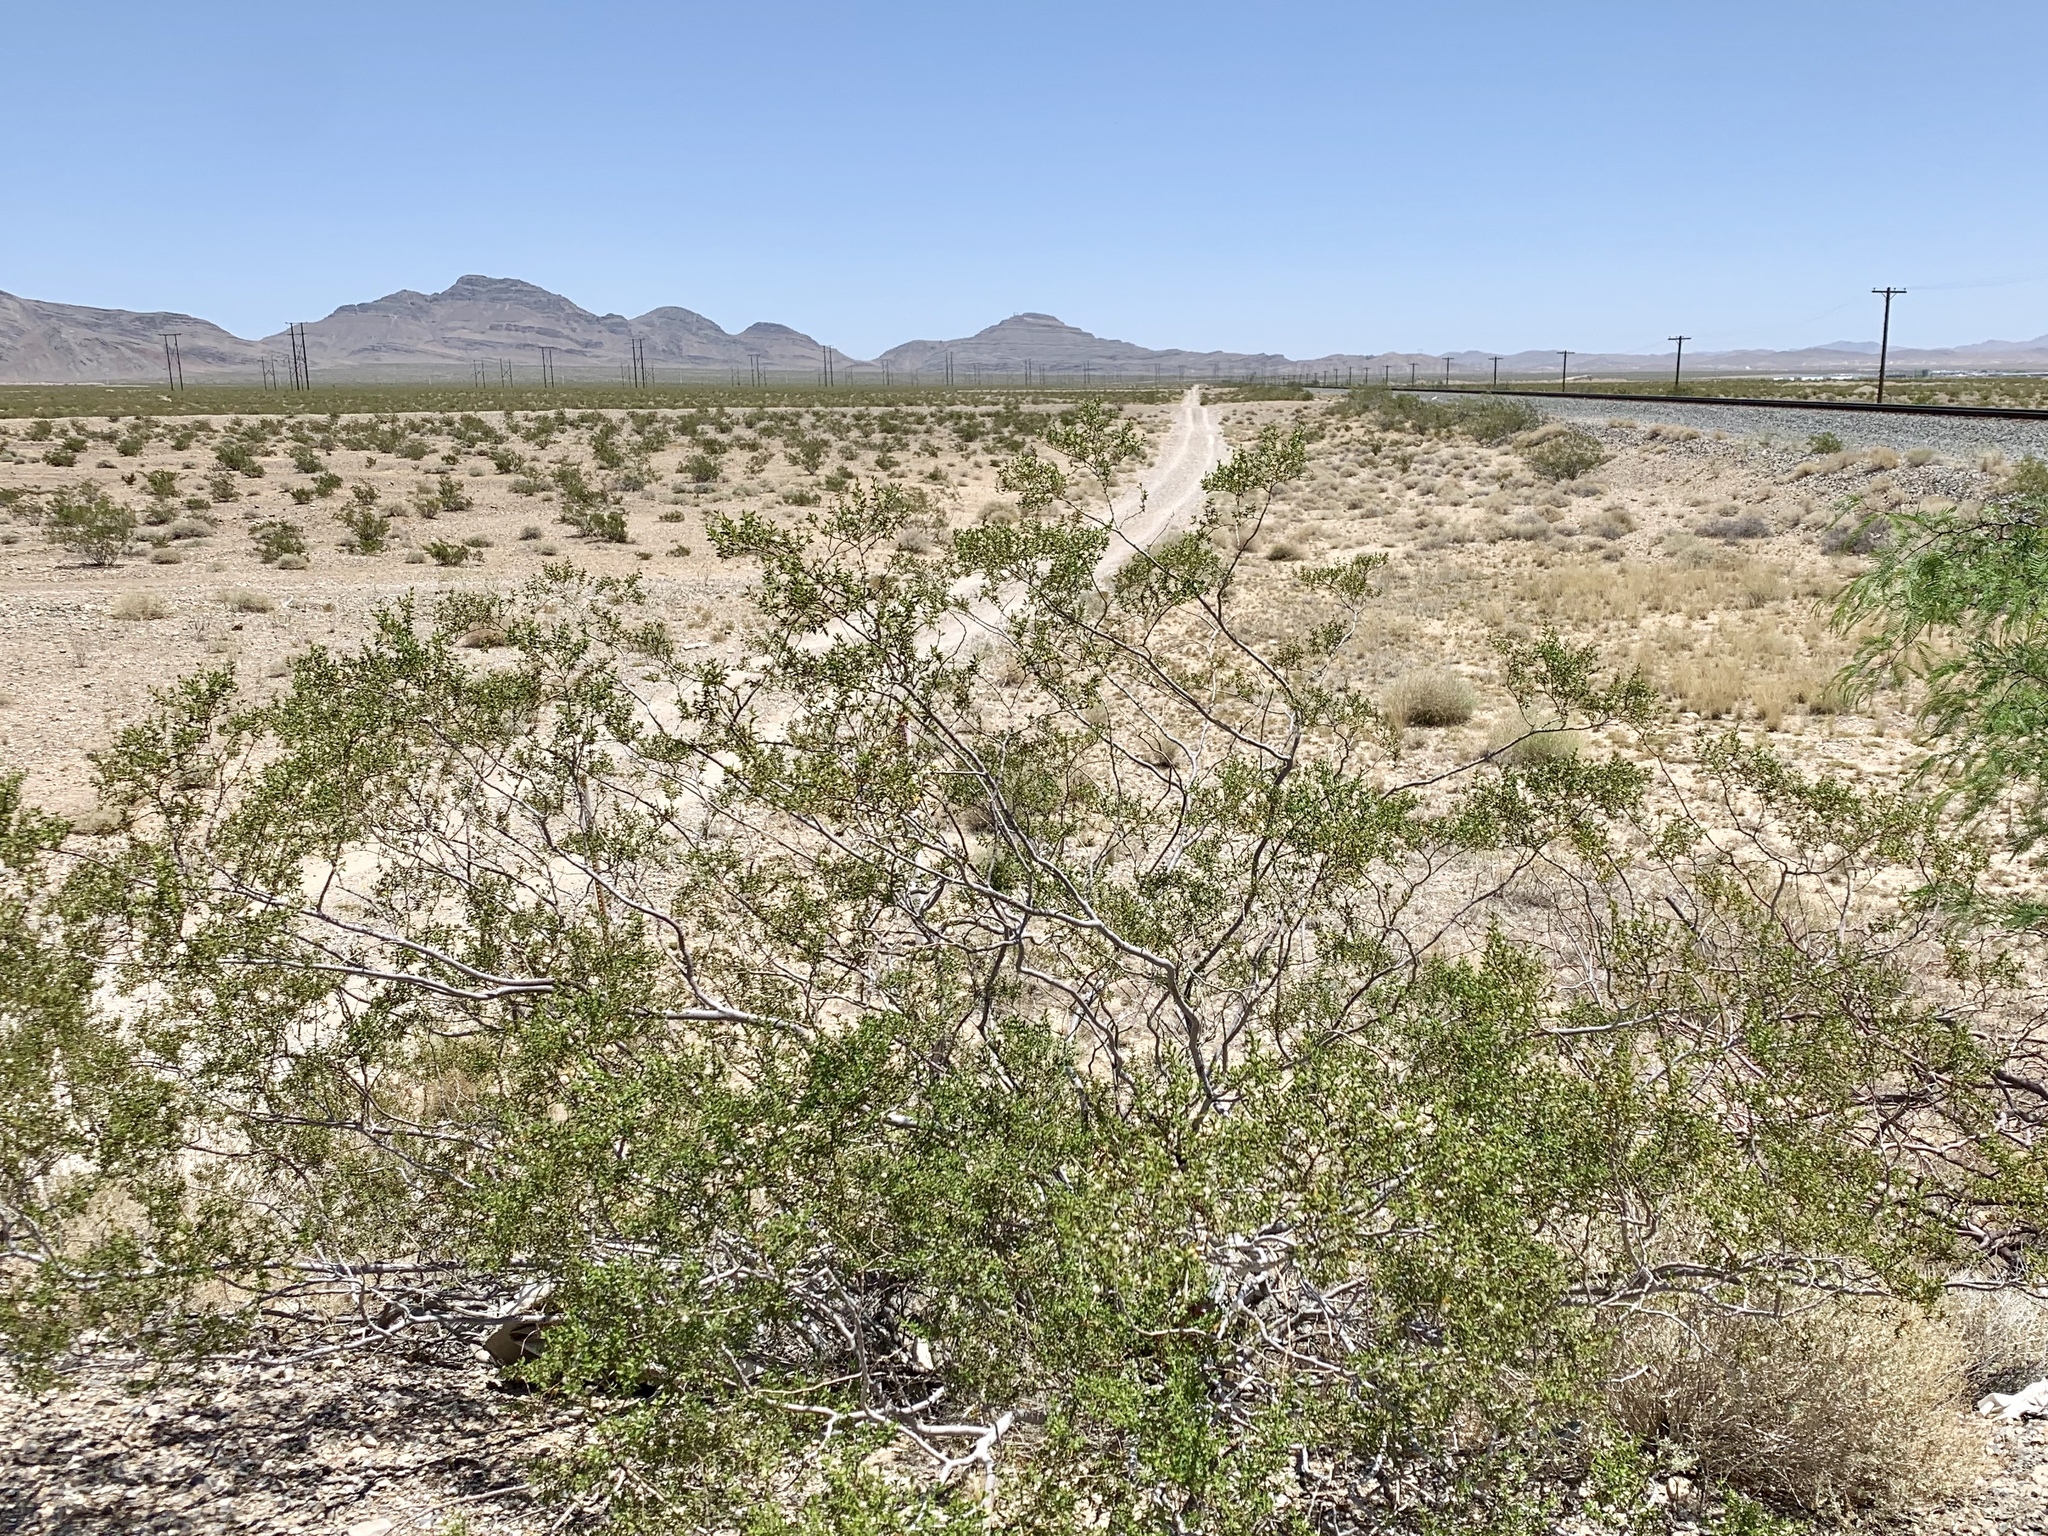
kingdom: Plantae
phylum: Tracheophyta
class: Magnoliopsida
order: Zygophyllales
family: Zygophyllaceae
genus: Larrea
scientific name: Larrea tridentata
